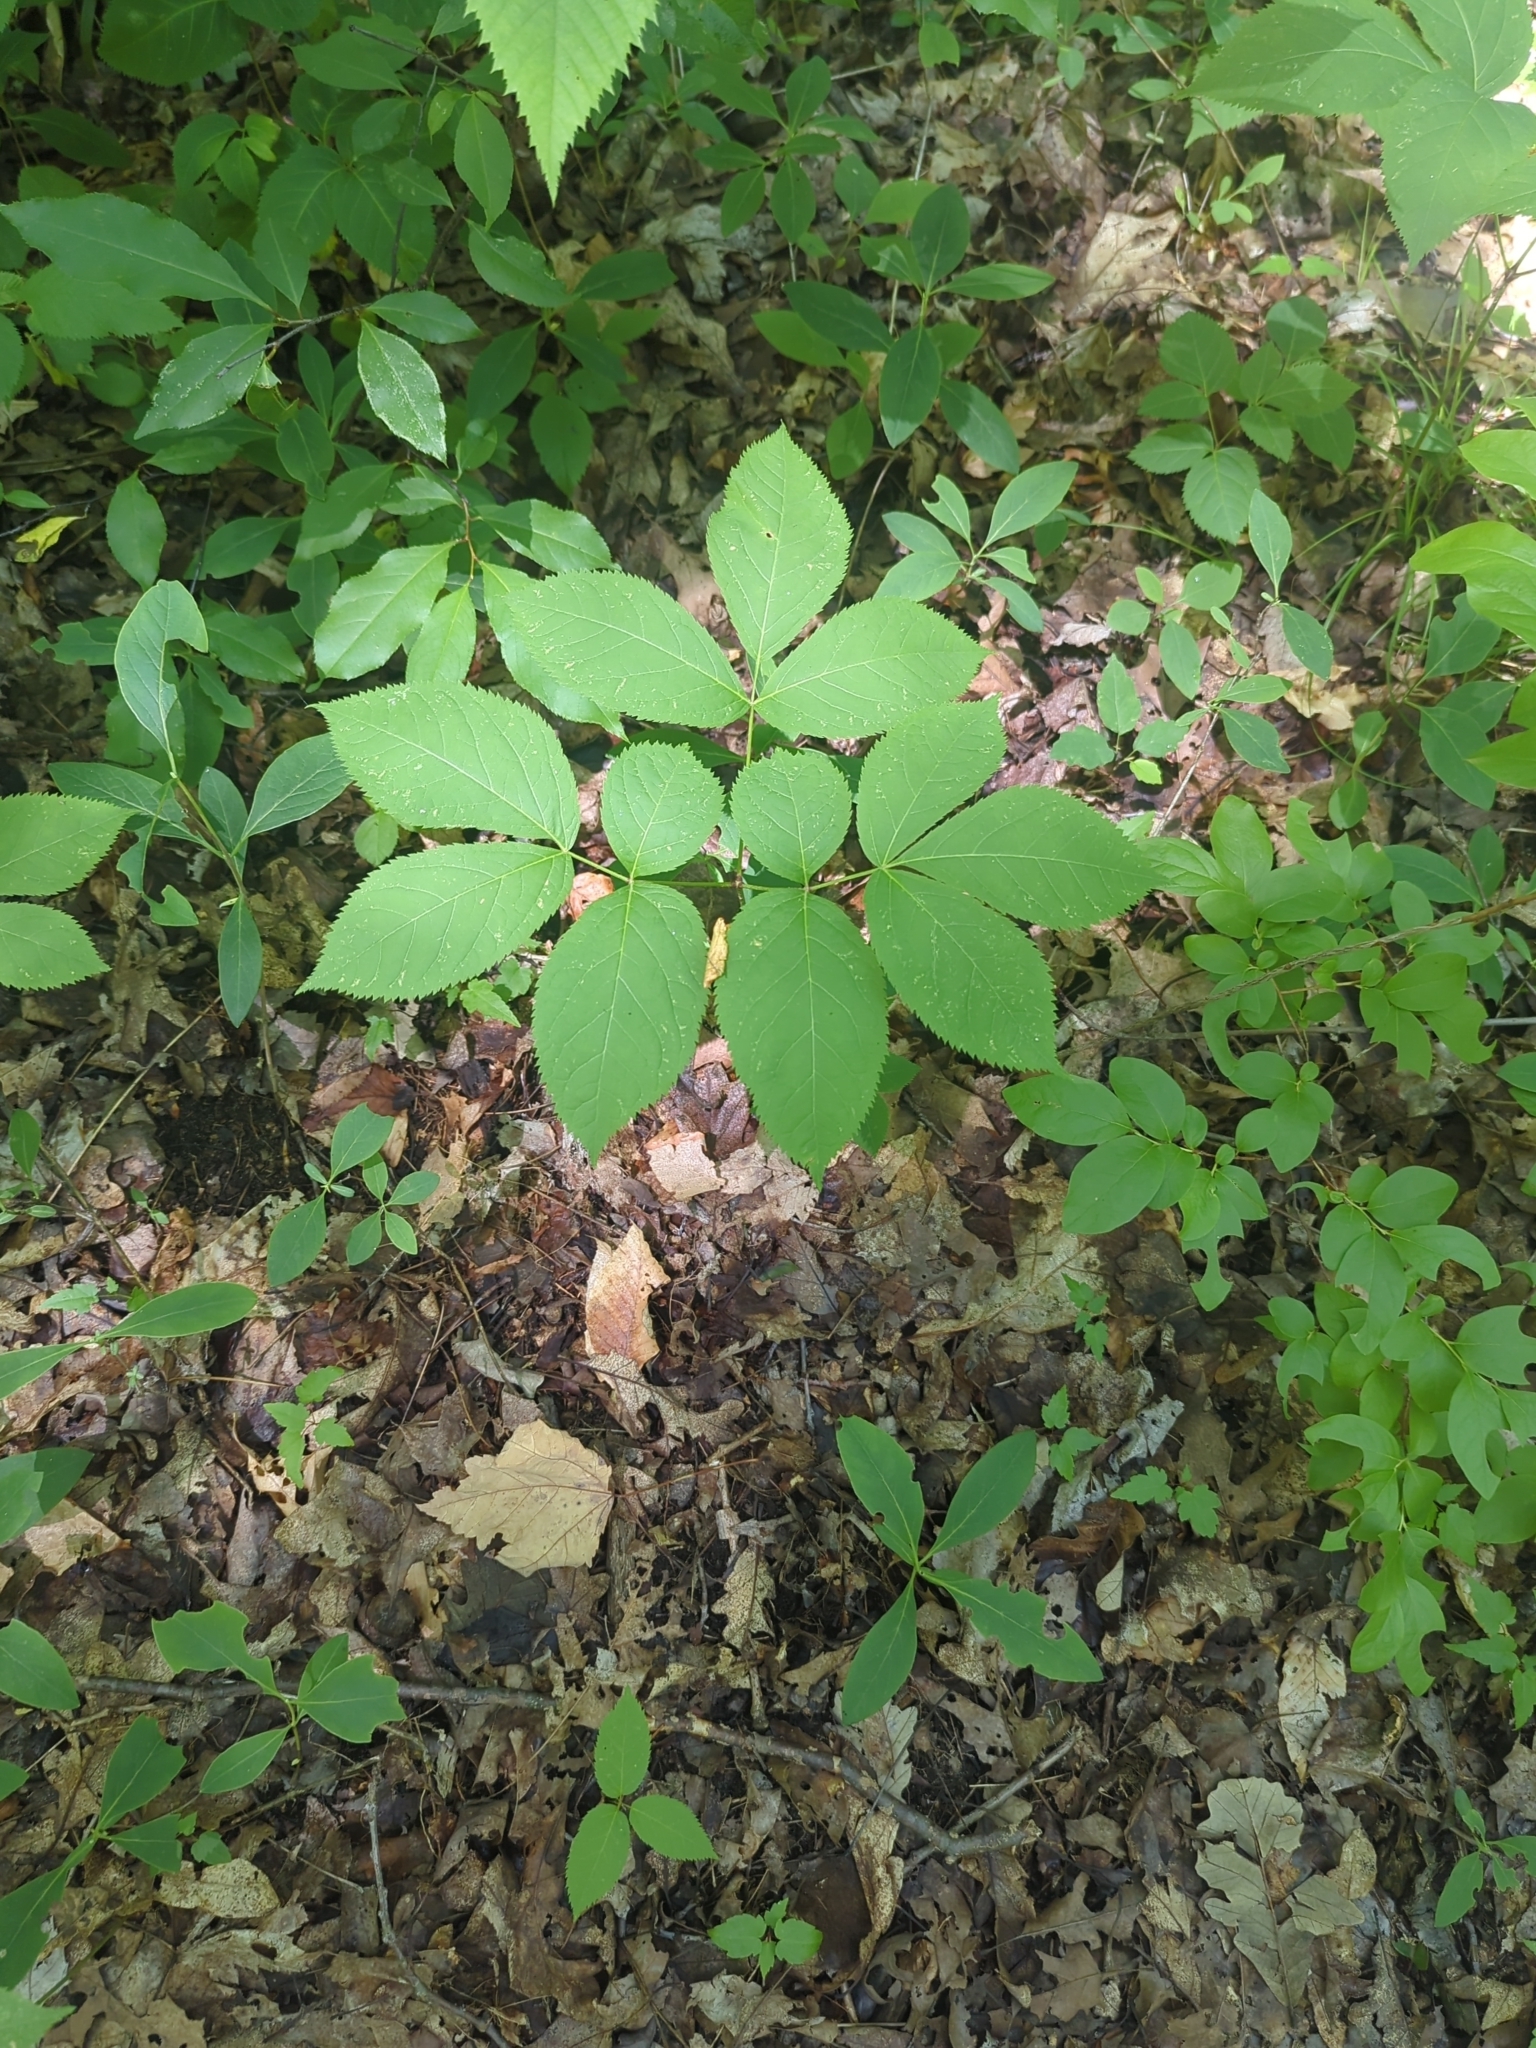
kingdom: Plantae
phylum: Tracheophyta
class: Magnoliopsida
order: Apiales
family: Araliaceae
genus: Aralia
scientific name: Aralia nudicaulis
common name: Wild sarsaparilla
